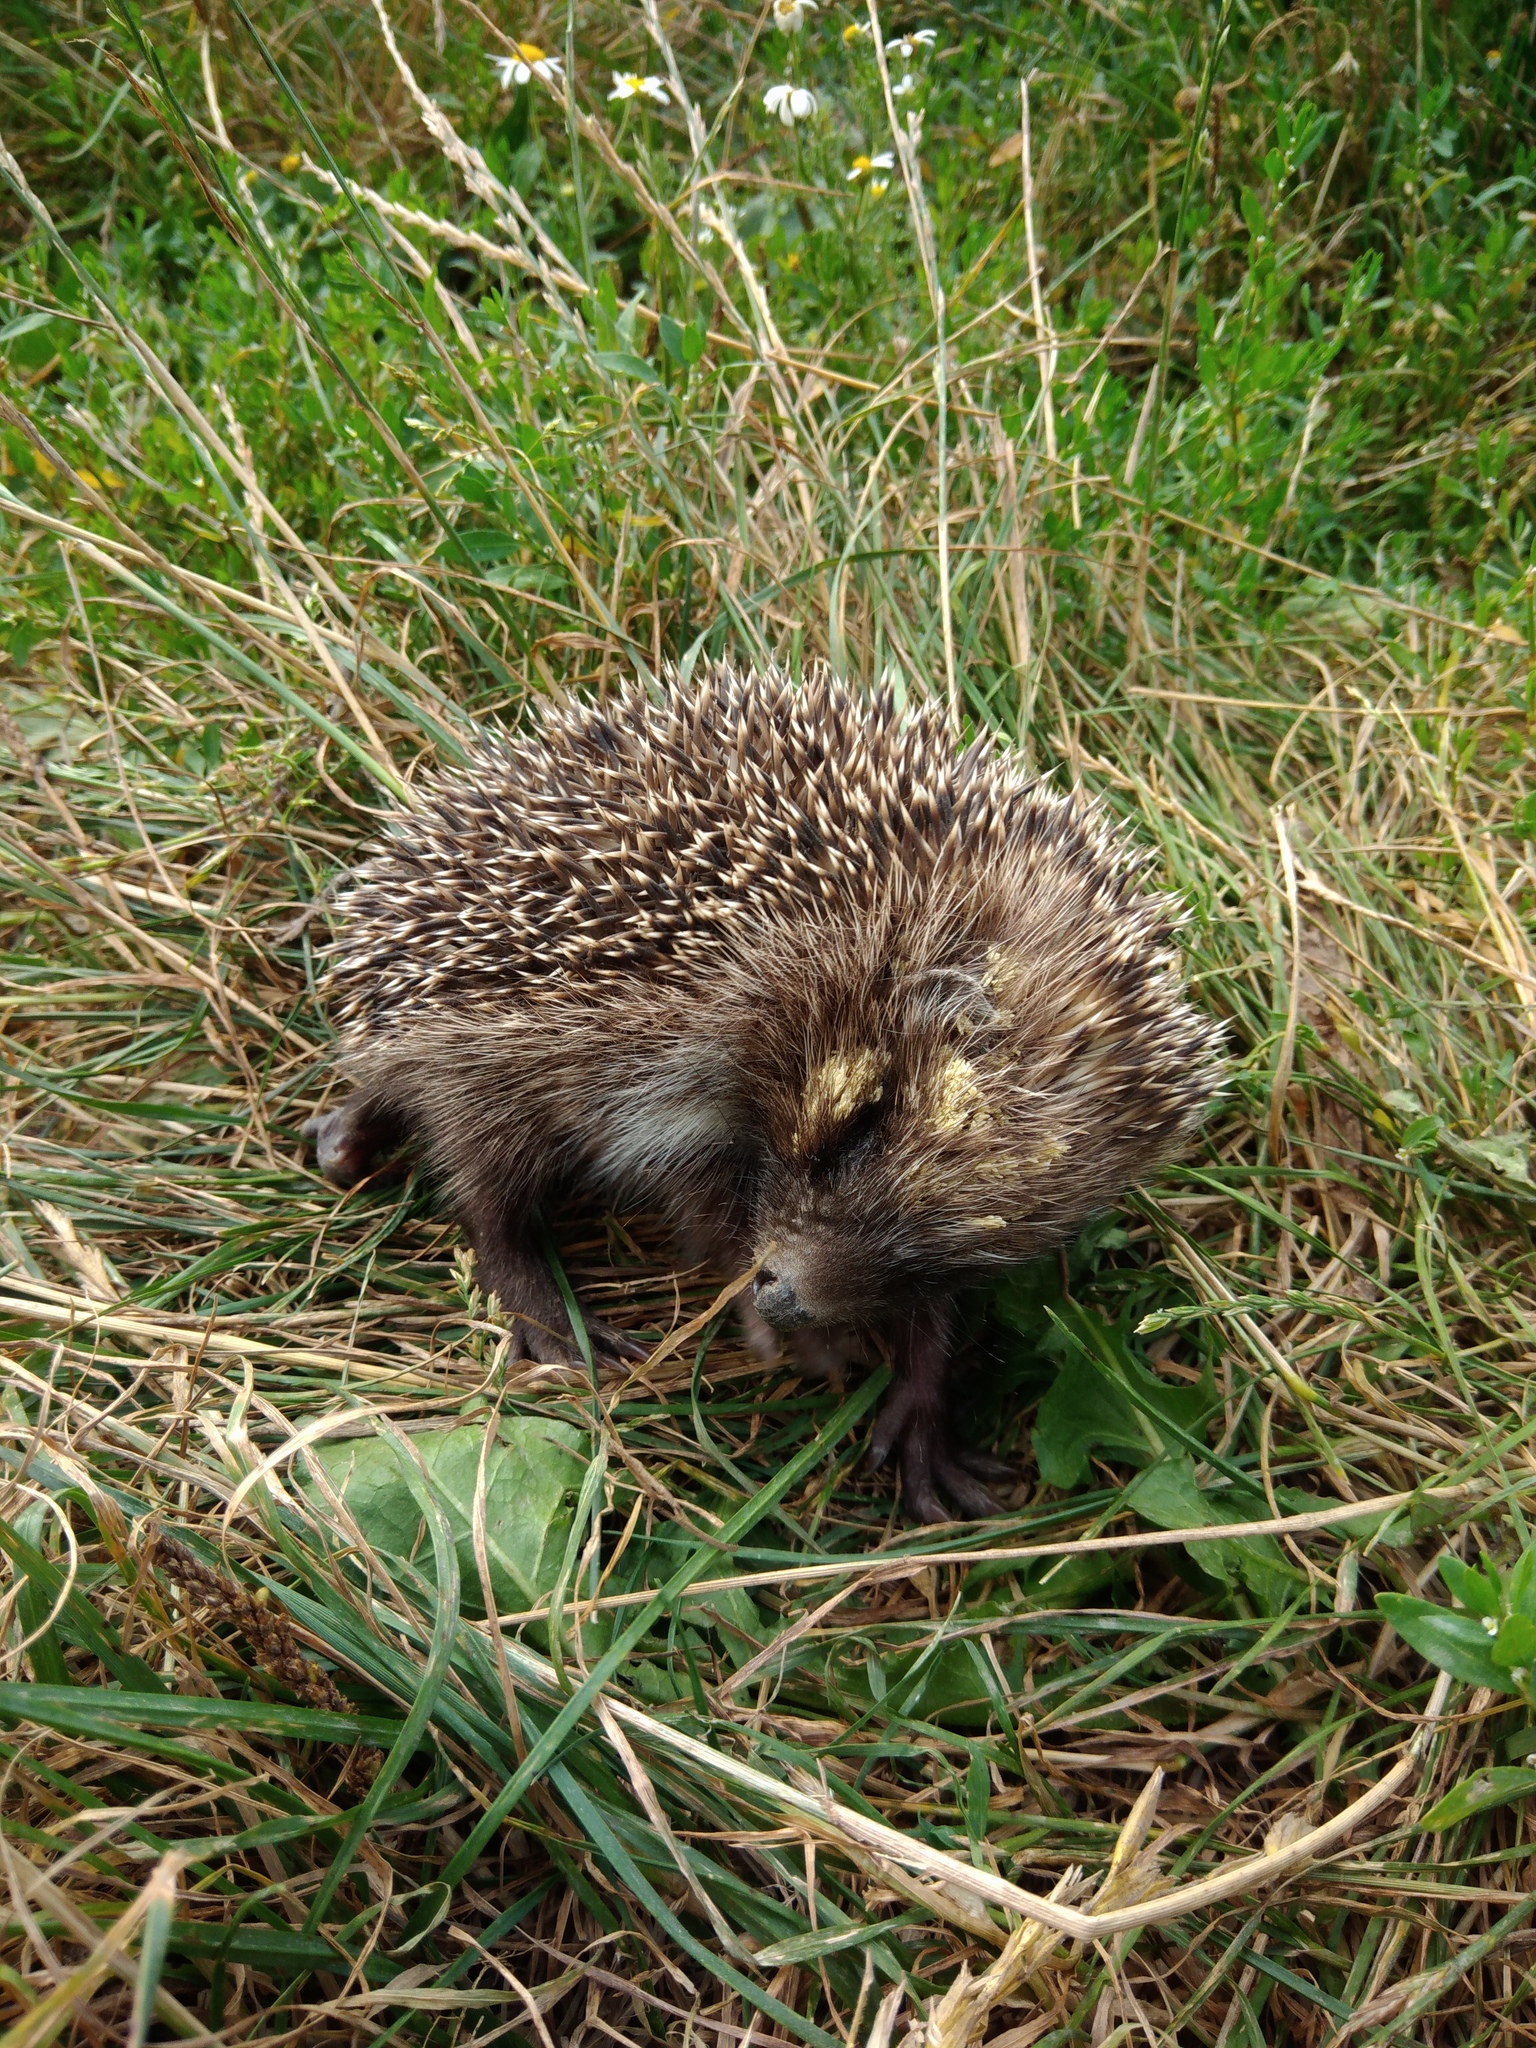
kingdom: Animalia
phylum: Chordata
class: Mammalia
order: Erinaceomorpha
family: Erinaceidae
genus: Erinaceus
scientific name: Erinaceus roumanicus
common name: Northern white-breasted hedgehog
